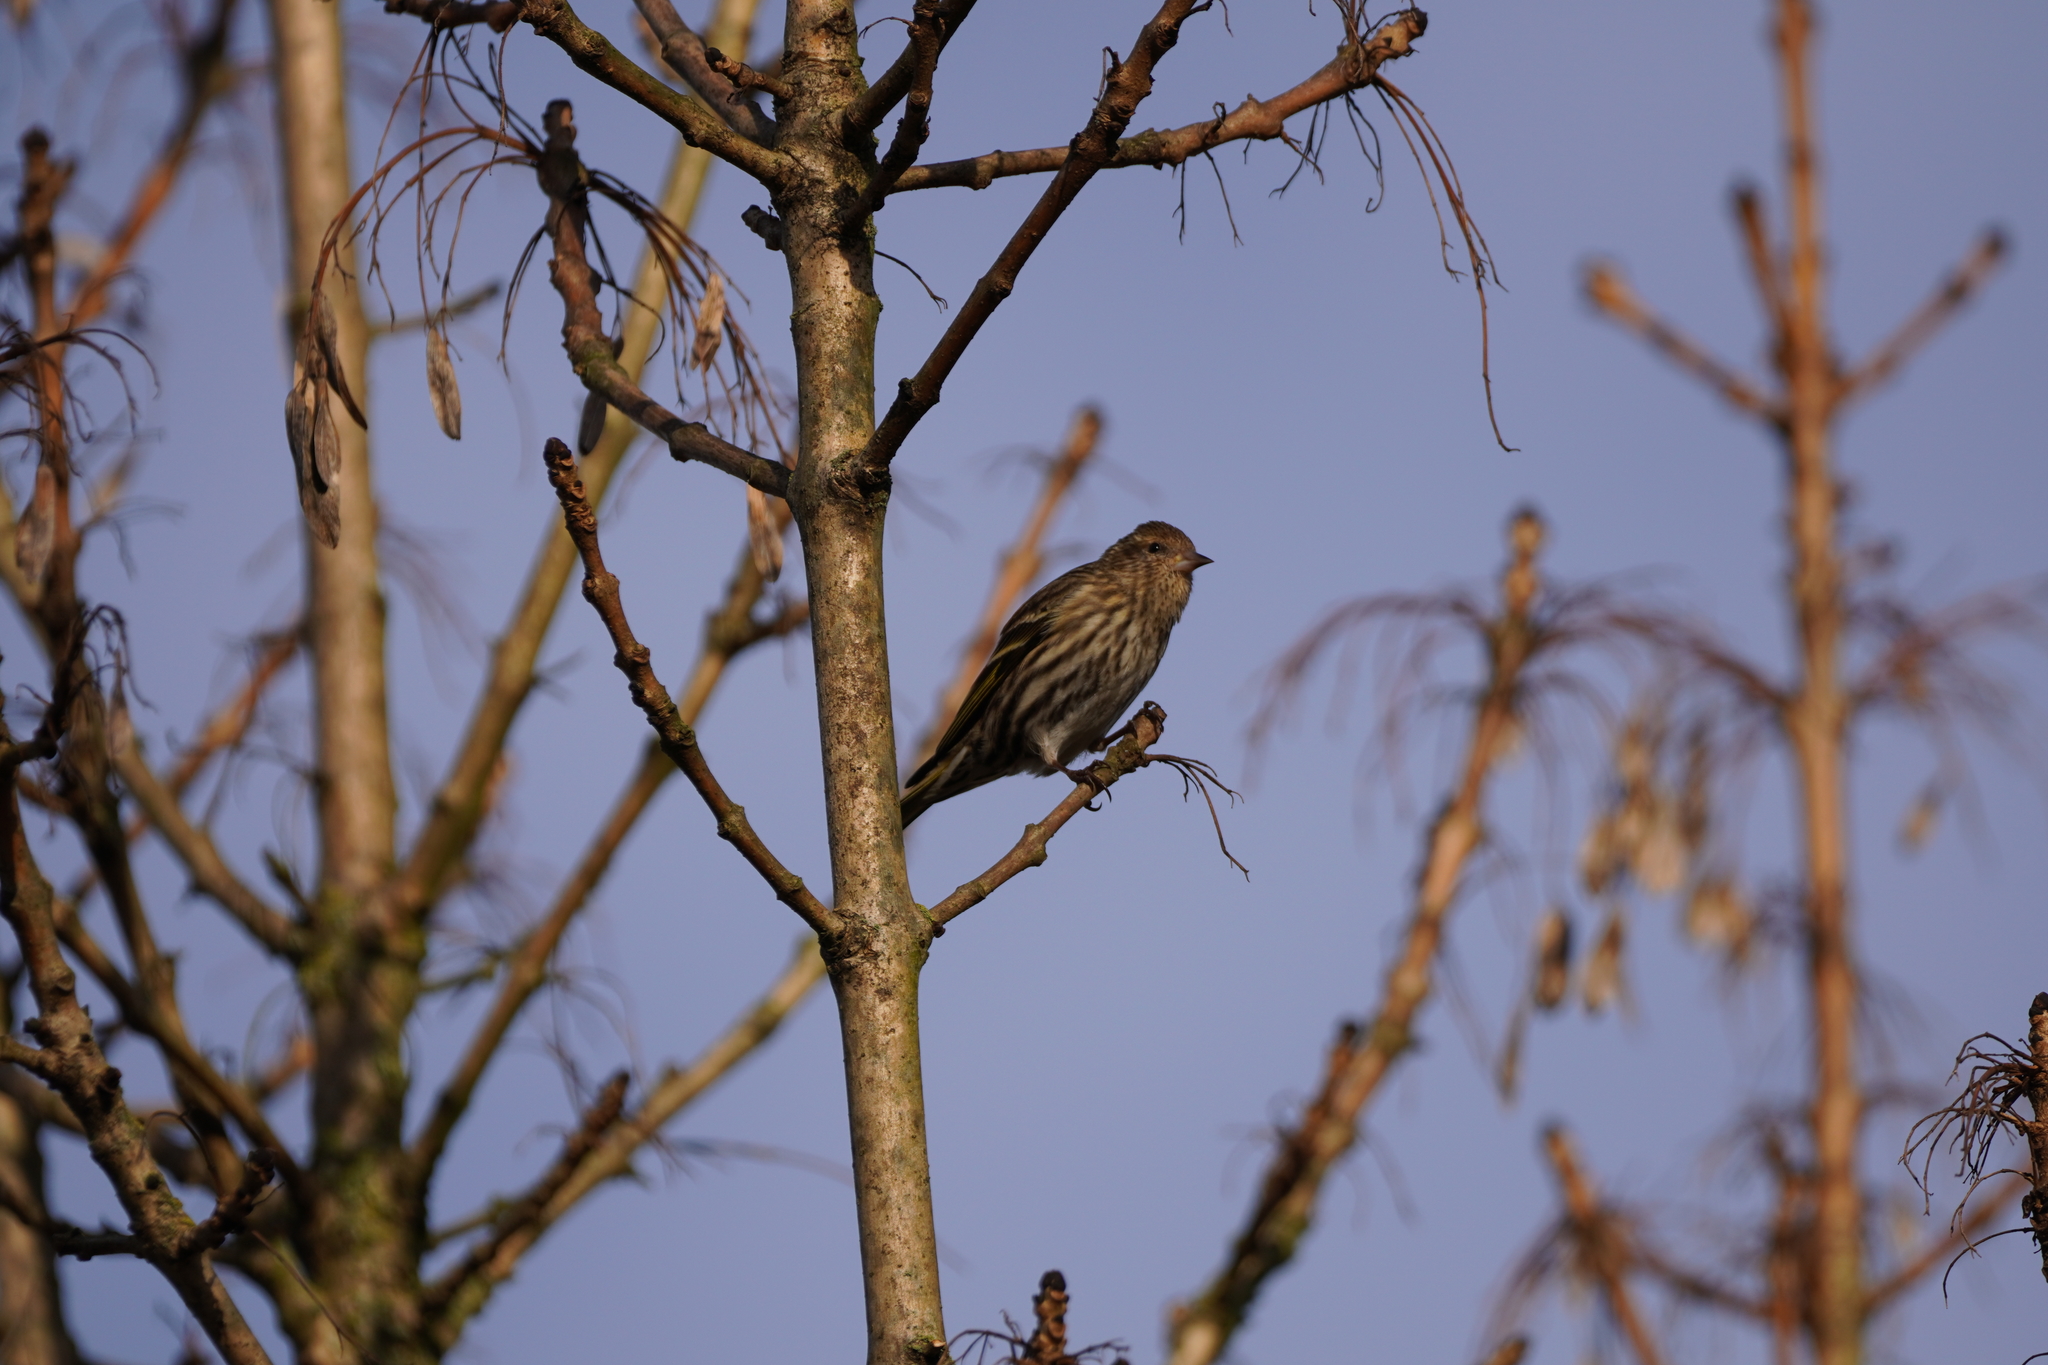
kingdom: Animalia
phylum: Chordata
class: Aves
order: Passeriformes
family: Fringillidae
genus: Spinus
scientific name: Spinus pinus
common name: Pine siskin
